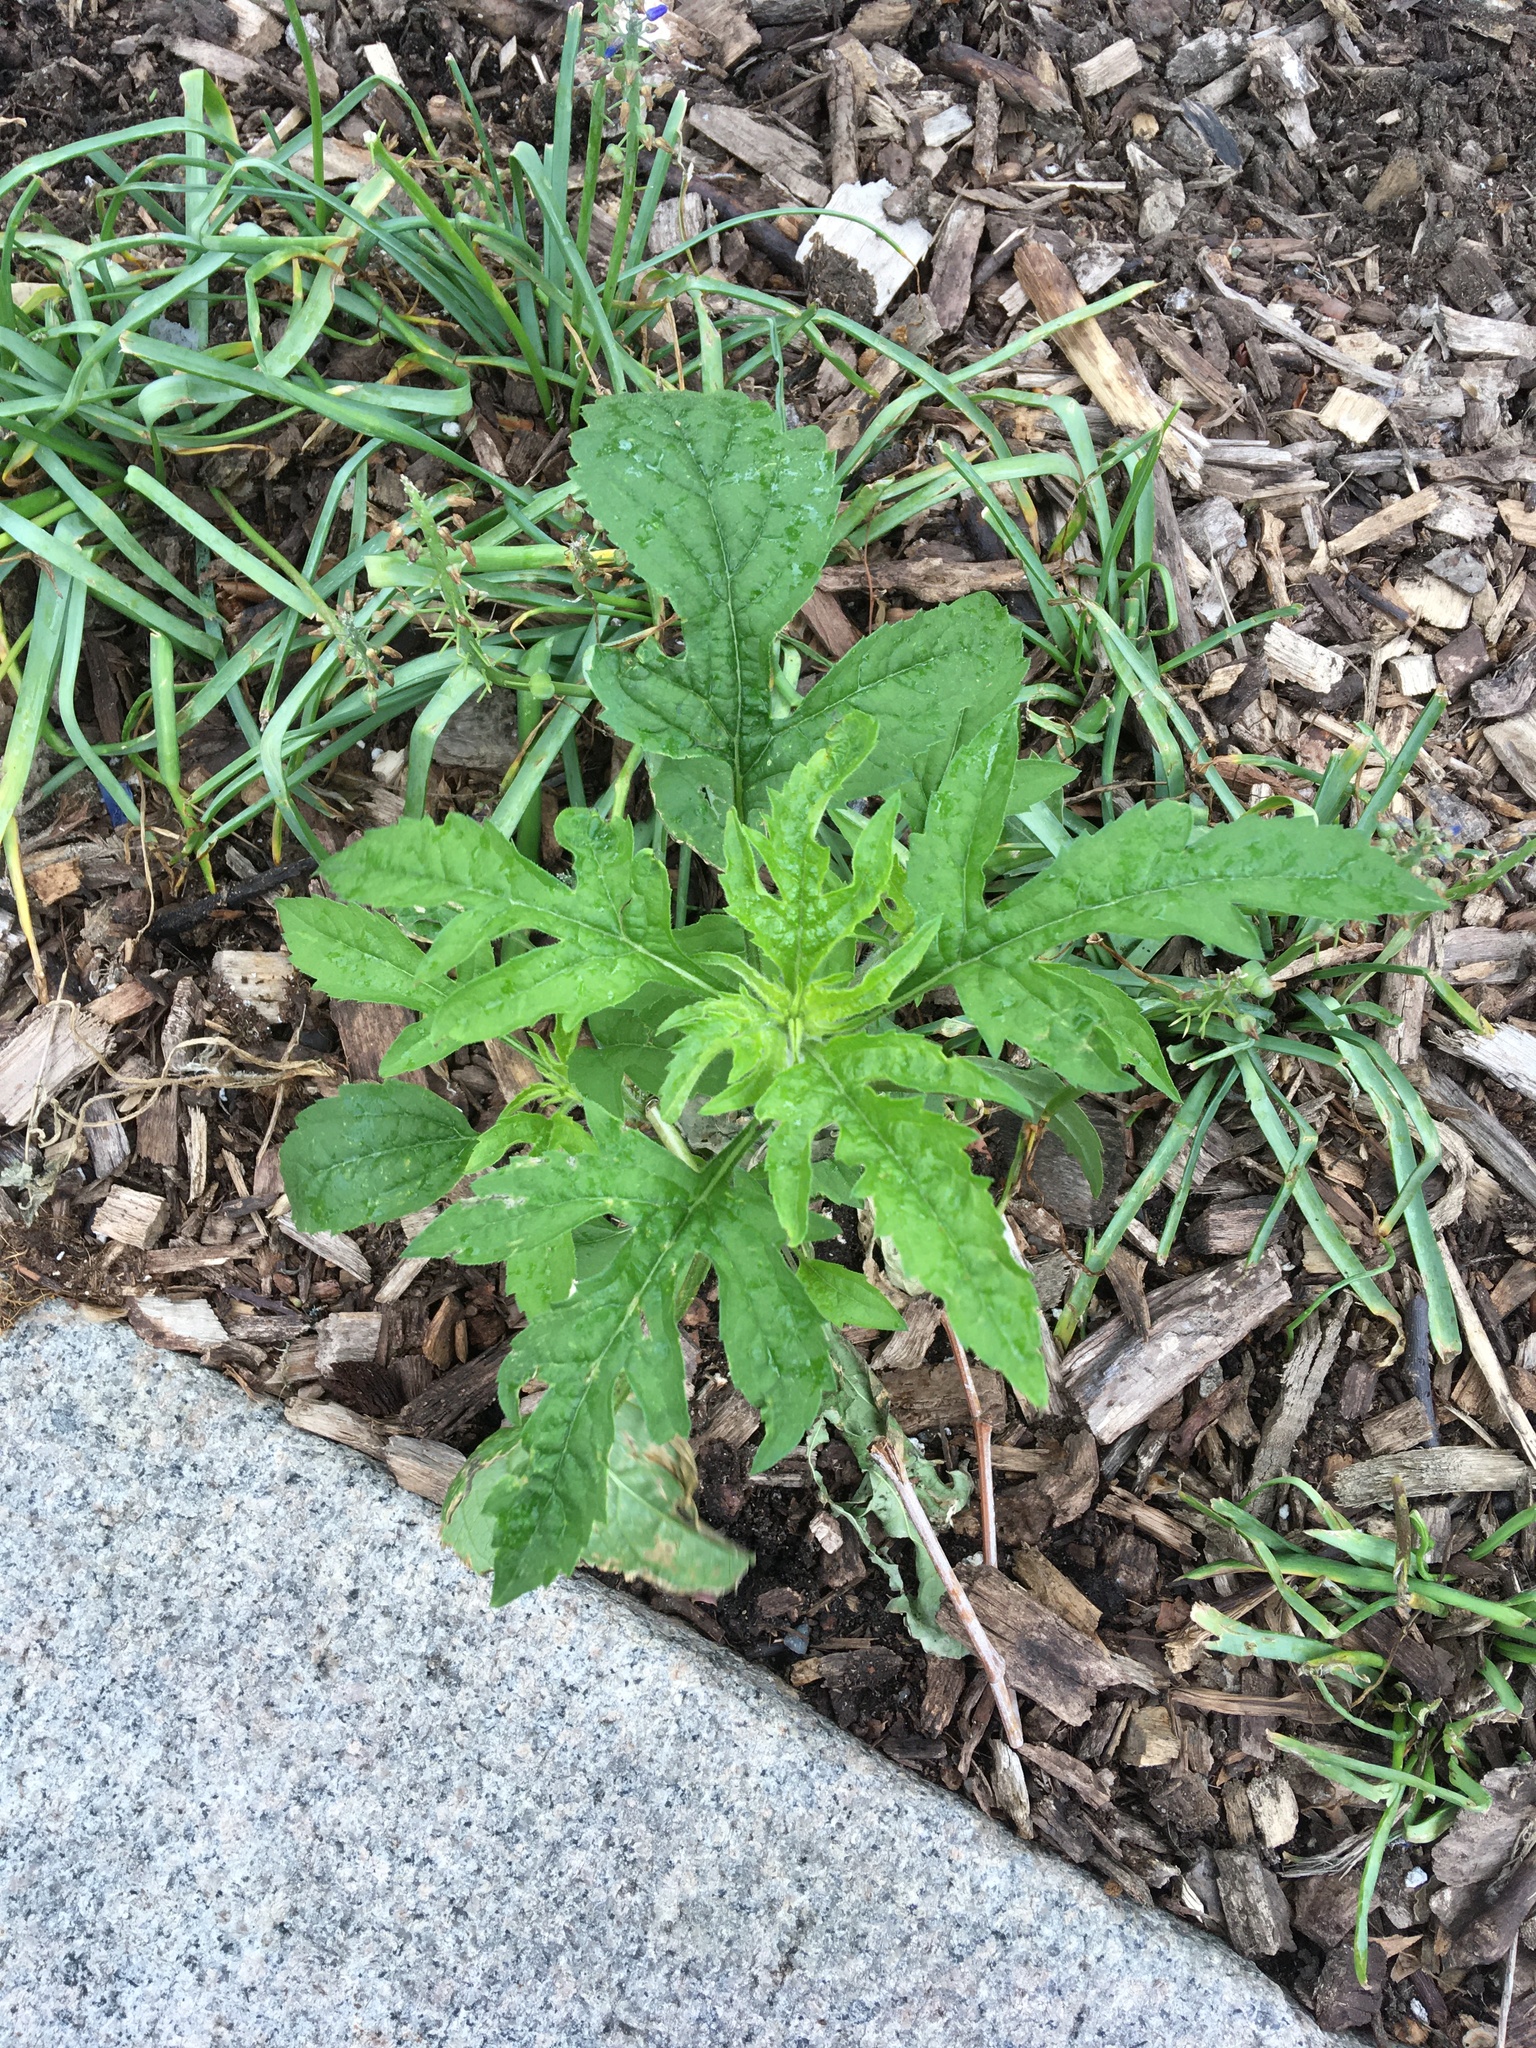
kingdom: Plantae
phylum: Tracheophyta
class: Magnoliopsida
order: Asterales
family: Asteraceae
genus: Ambrosia
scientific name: Ambrosia trifida
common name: Giant ragweed
